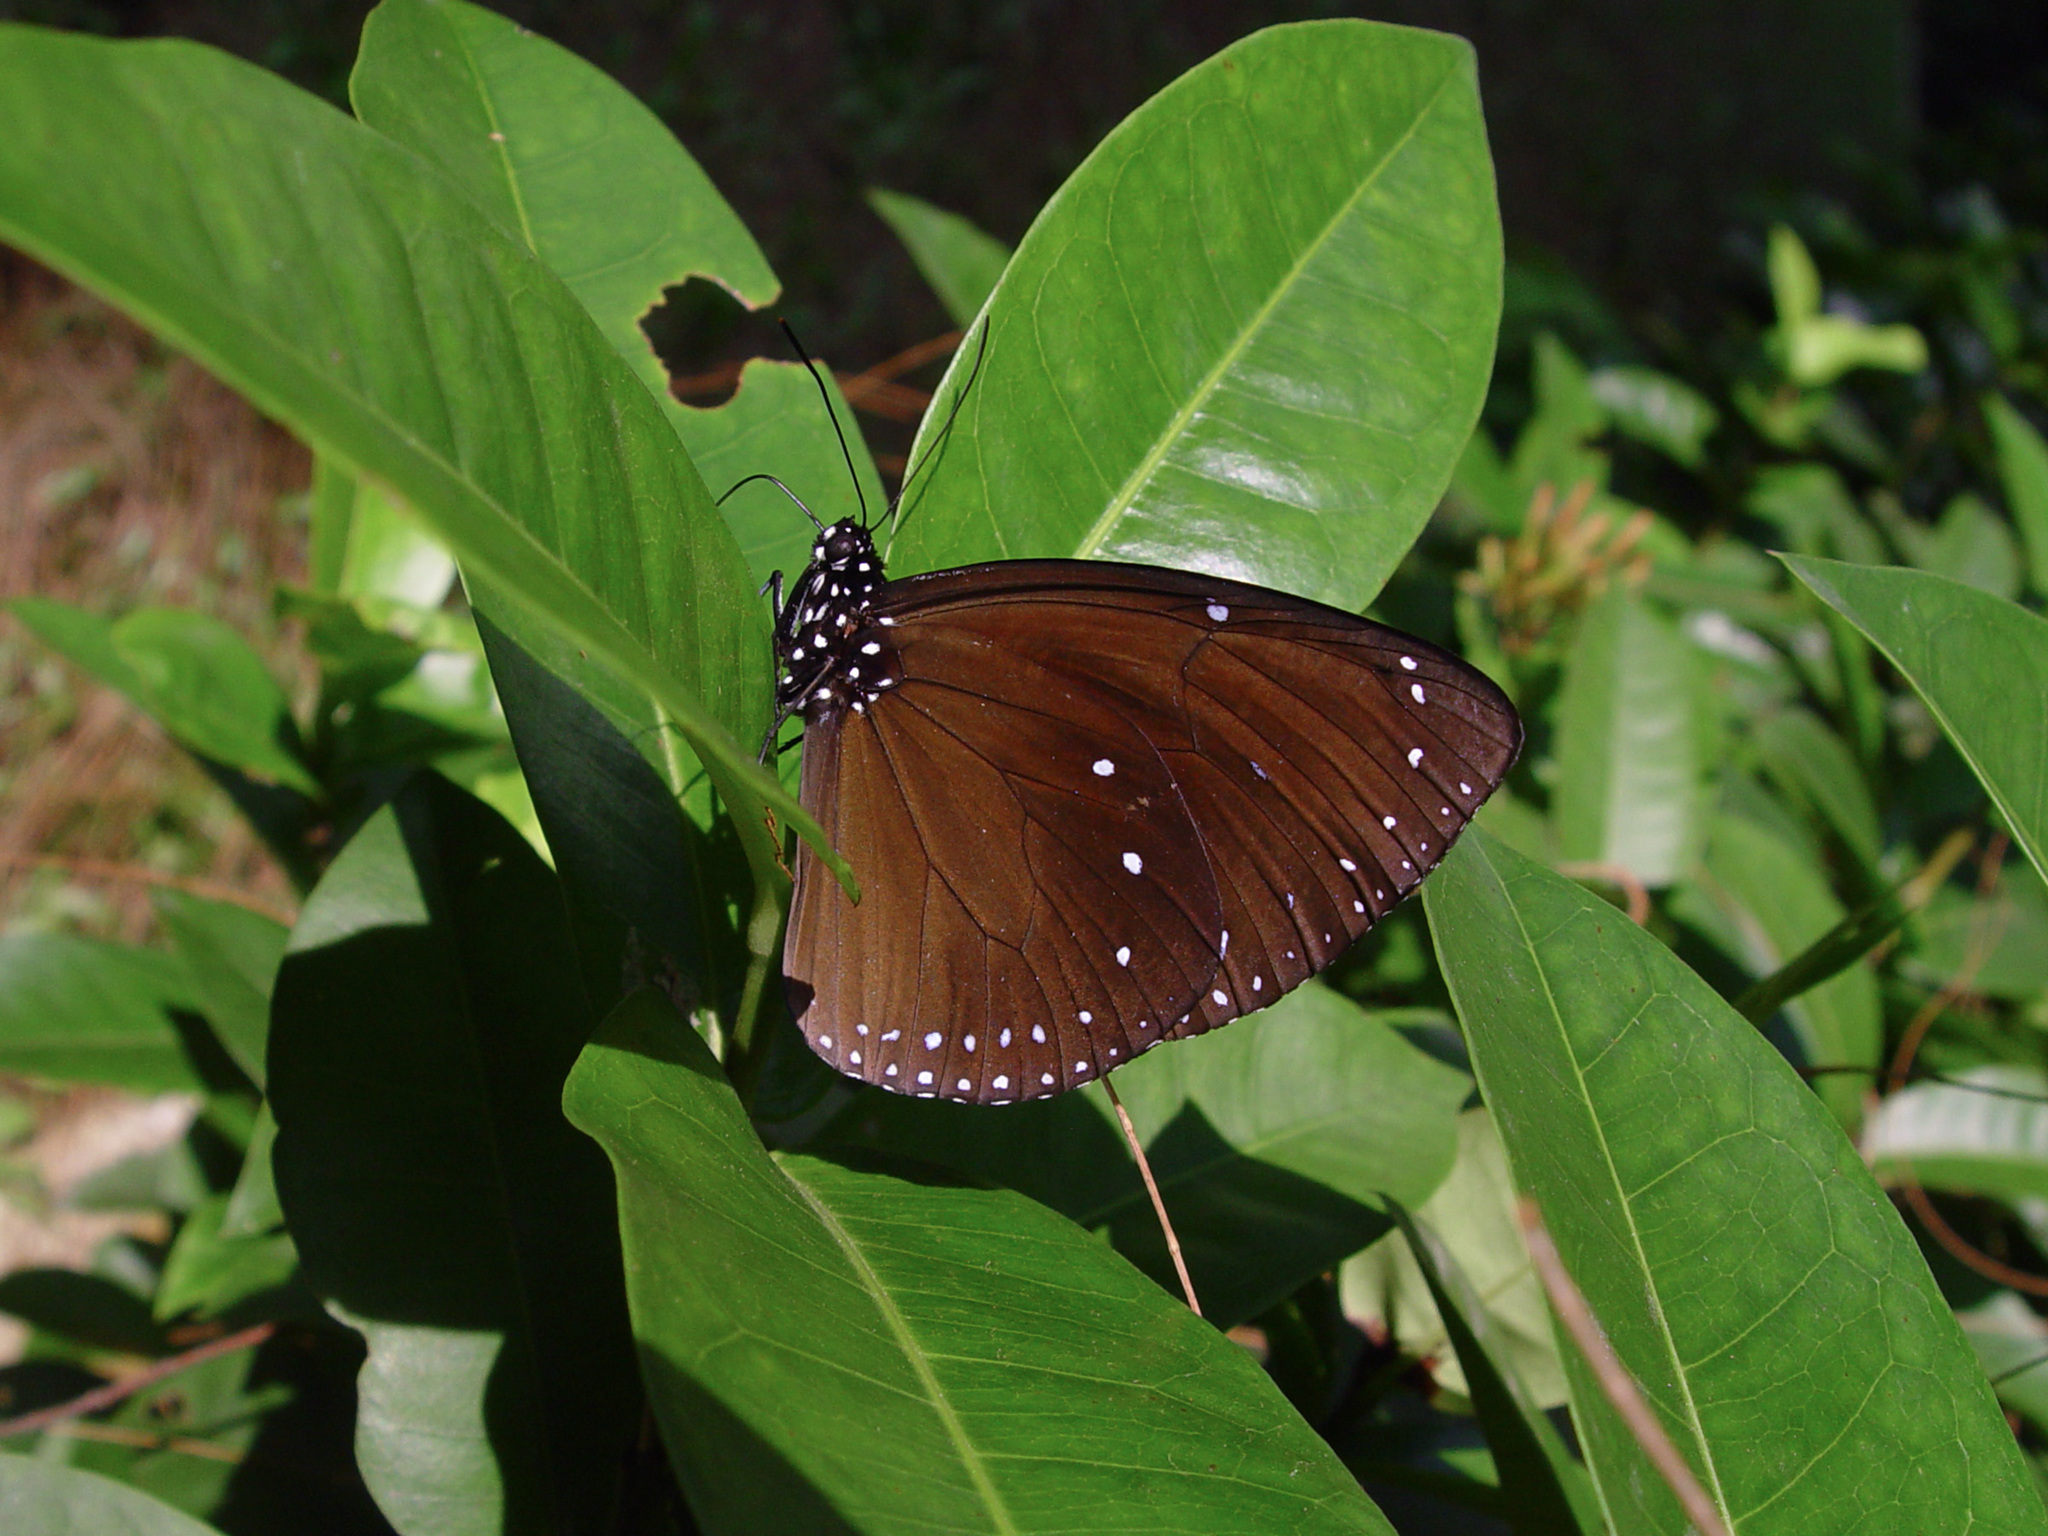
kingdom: Animalia
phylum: Arthropoda
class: Insecta
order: Lepidoptera
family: Nymphalidae
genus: Euploea
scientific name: Euploea eunice
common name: Blue-banded king crow butterfly
